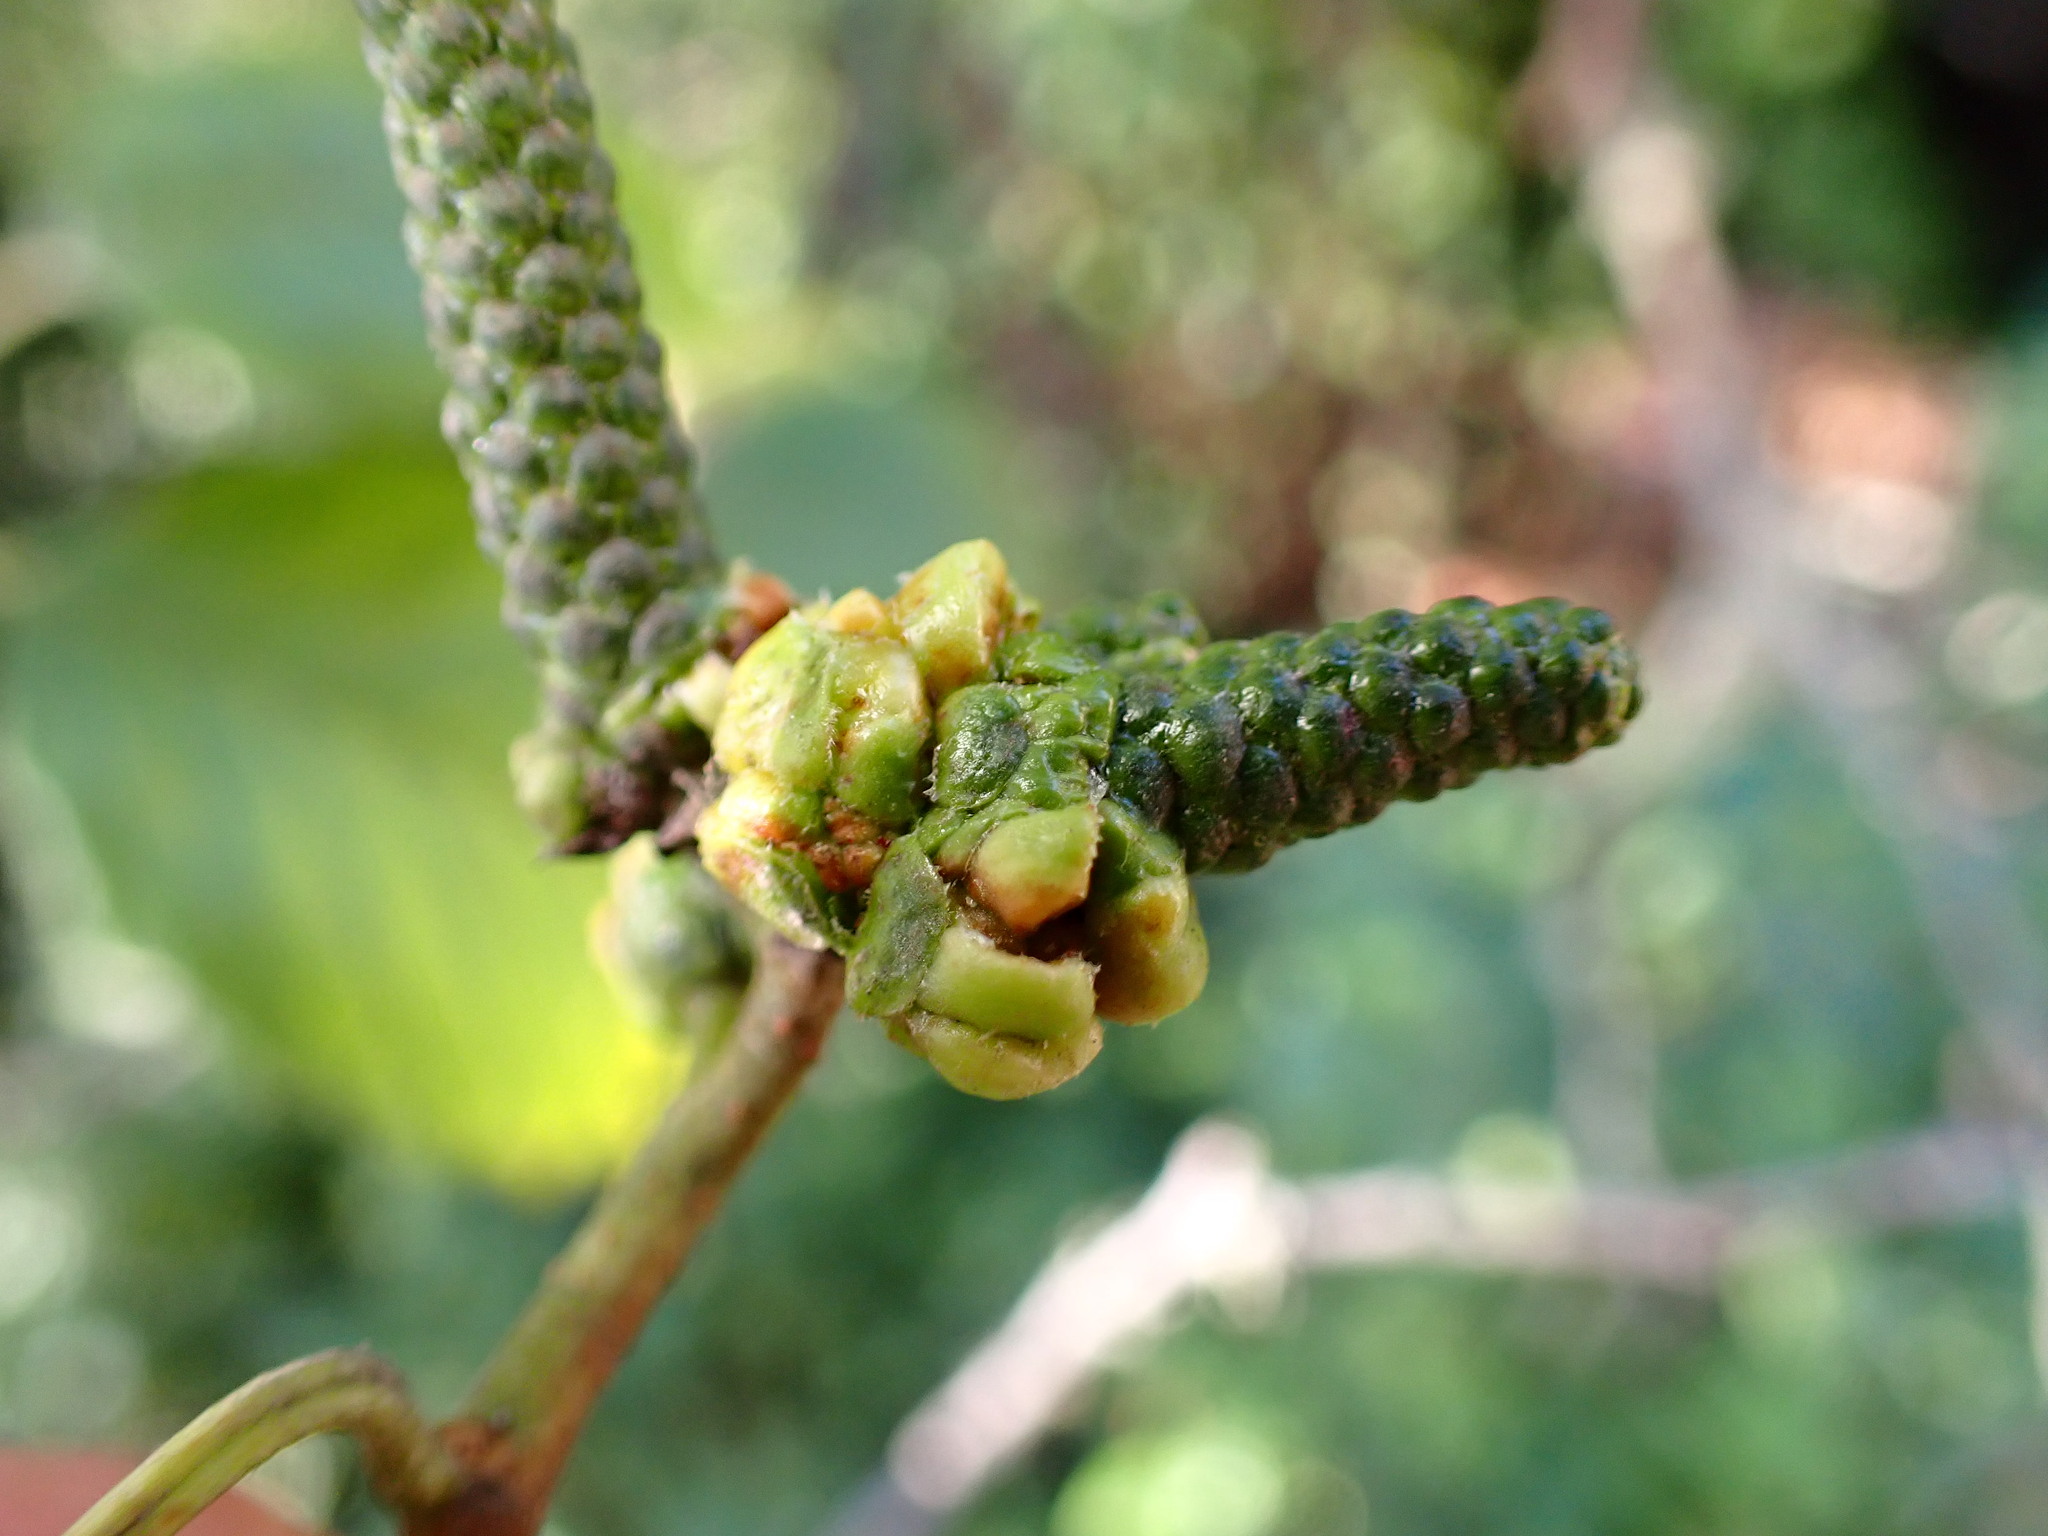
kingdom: Animalia
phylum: Arthropoda
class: Insecta
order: Diptera
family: Cecidomyiidae
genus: Dasineura
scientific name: Dasineura
